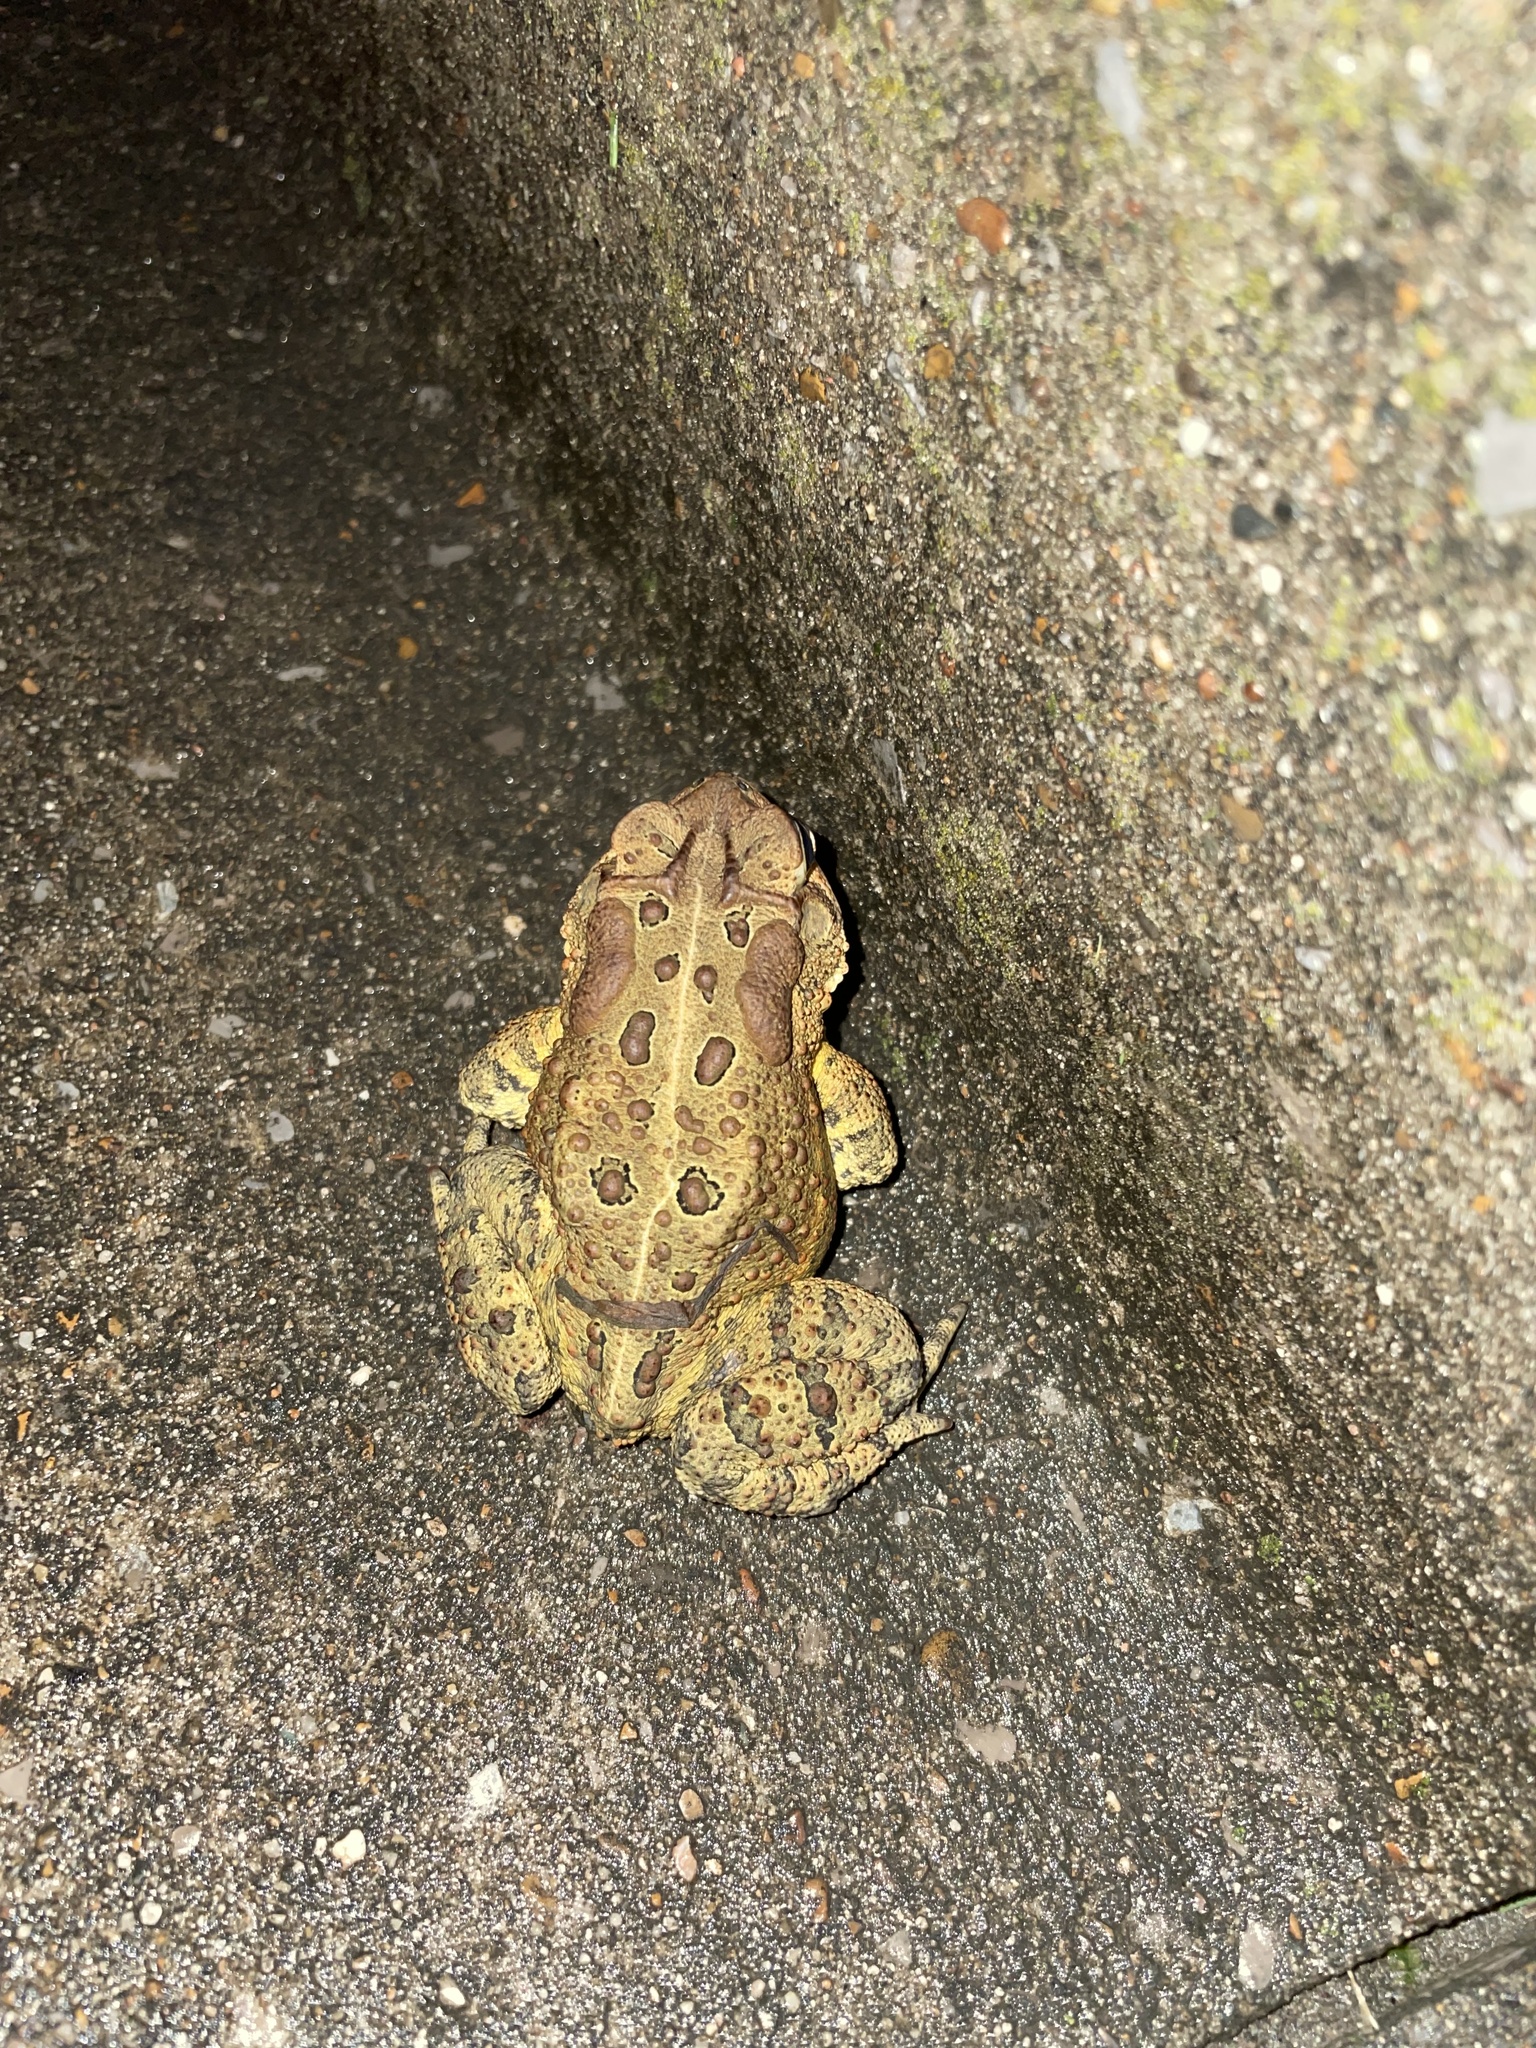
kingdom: Animalia
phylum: Chordata
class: Amphibia
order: Anura
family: Bufonidae
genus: Anaxyrus
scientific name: Anaxyrus americanus
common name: American toad
